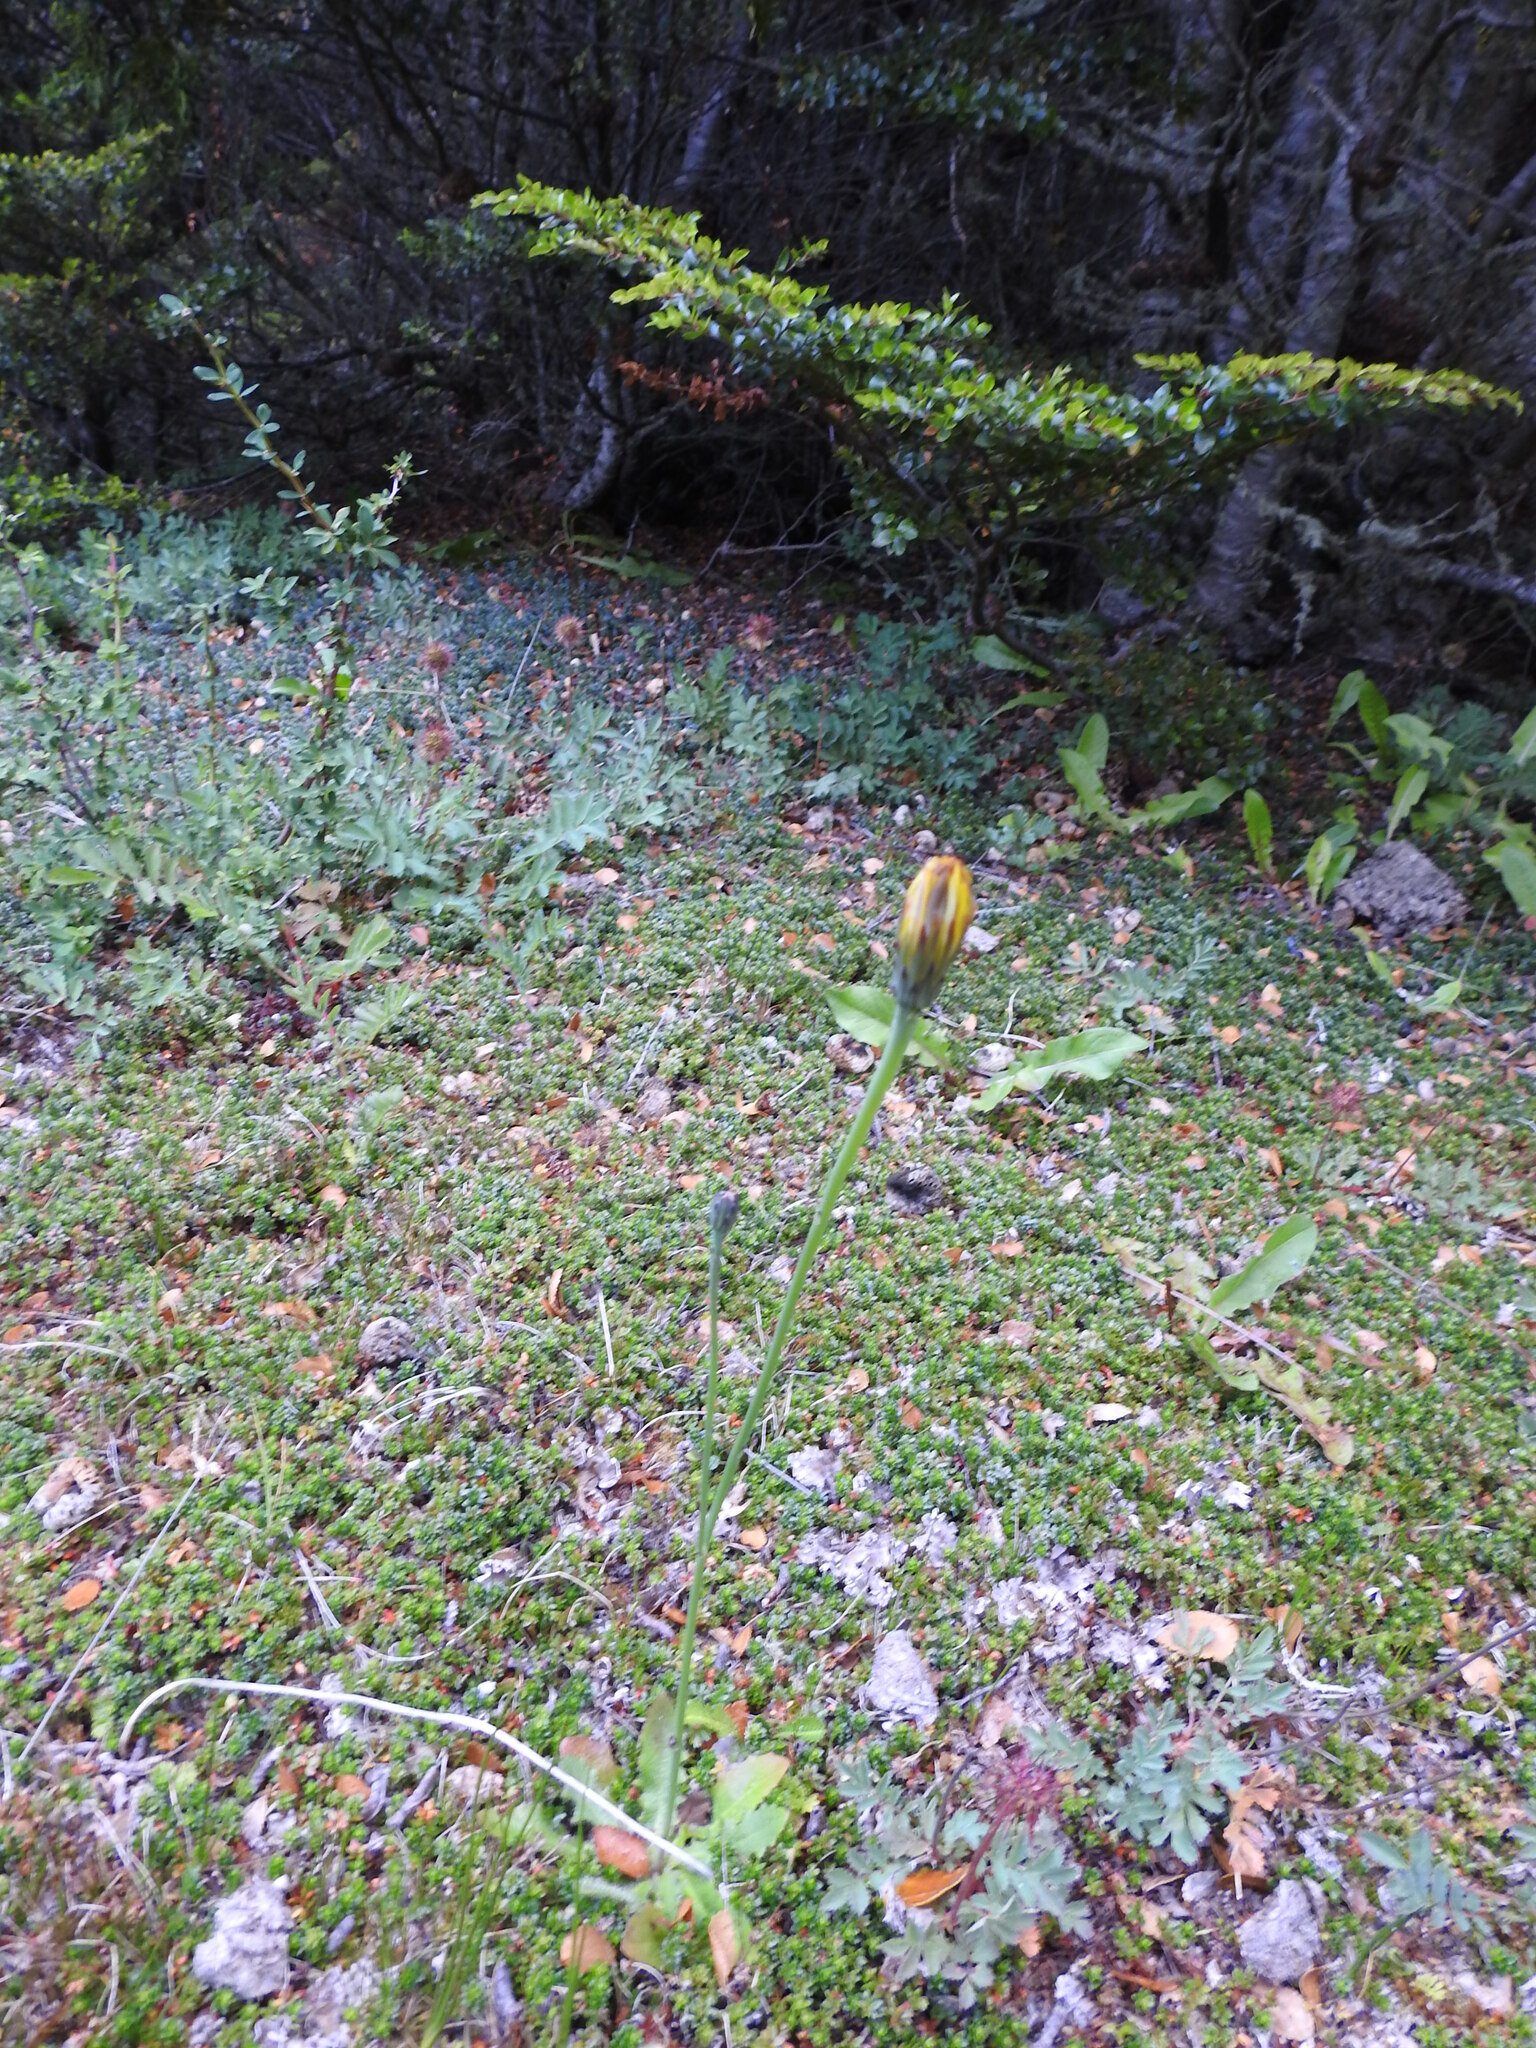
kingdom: Plantae
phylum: Tracheophyta
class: Magnoliopsida
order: Asterales
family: Asteraceae
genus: Hypochaeris
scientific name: Hypochaeris radicata
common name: Flatweed
